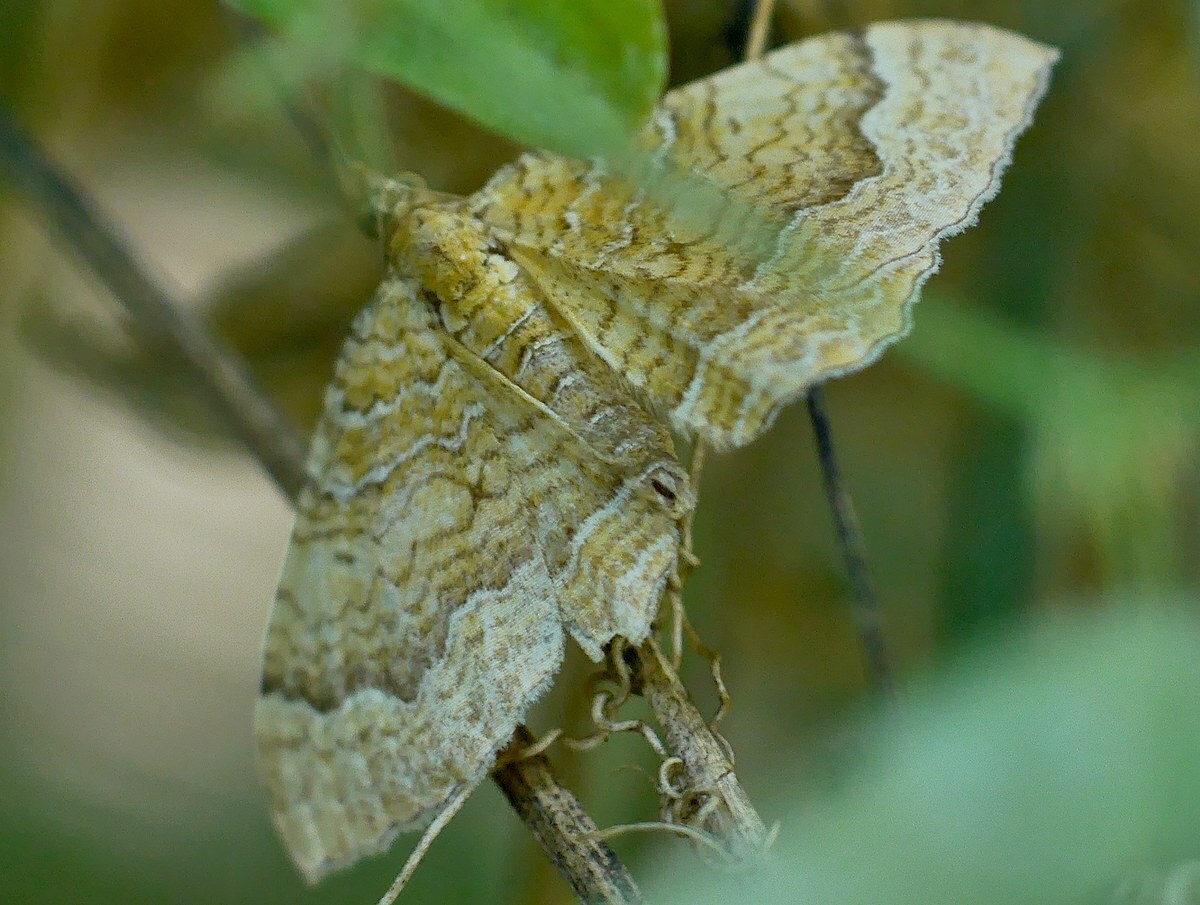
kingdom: Animalia
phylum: Arthropoda
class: Insecta
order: Lepidoptera
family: Geometridae
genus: Camptogramma
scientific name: Camptogramma bilineata
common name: Yellow shell
